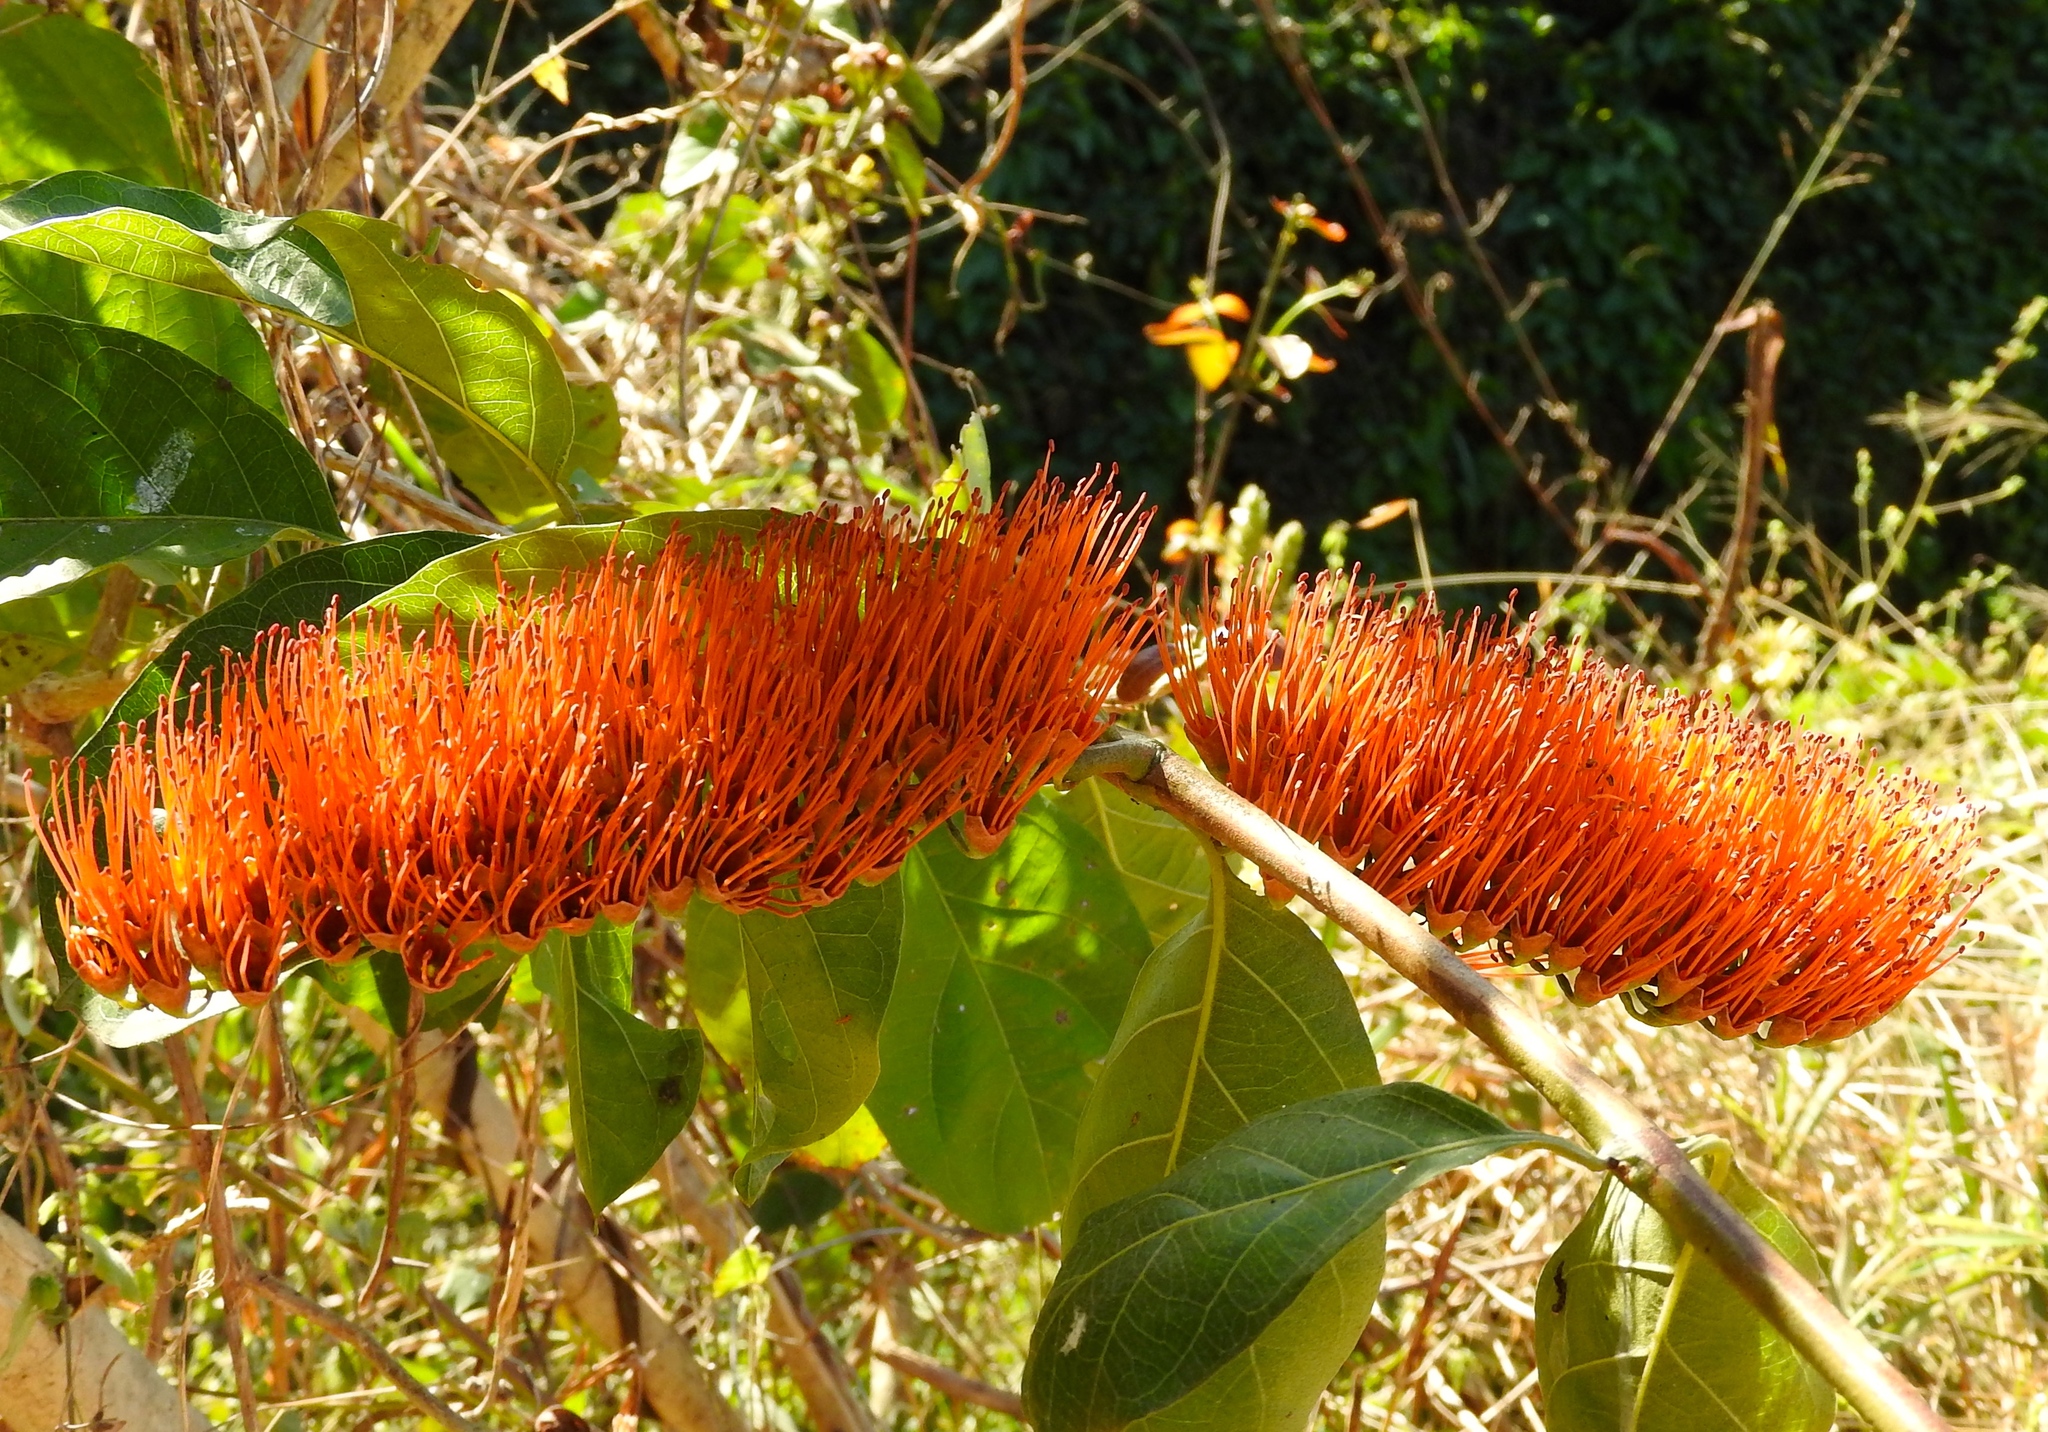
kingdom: Plantae
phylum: Tracheophyta
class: Magnoliopsida
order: Myrtales
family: Combretaceae
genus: Combretum
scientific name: Combretum farinosum
